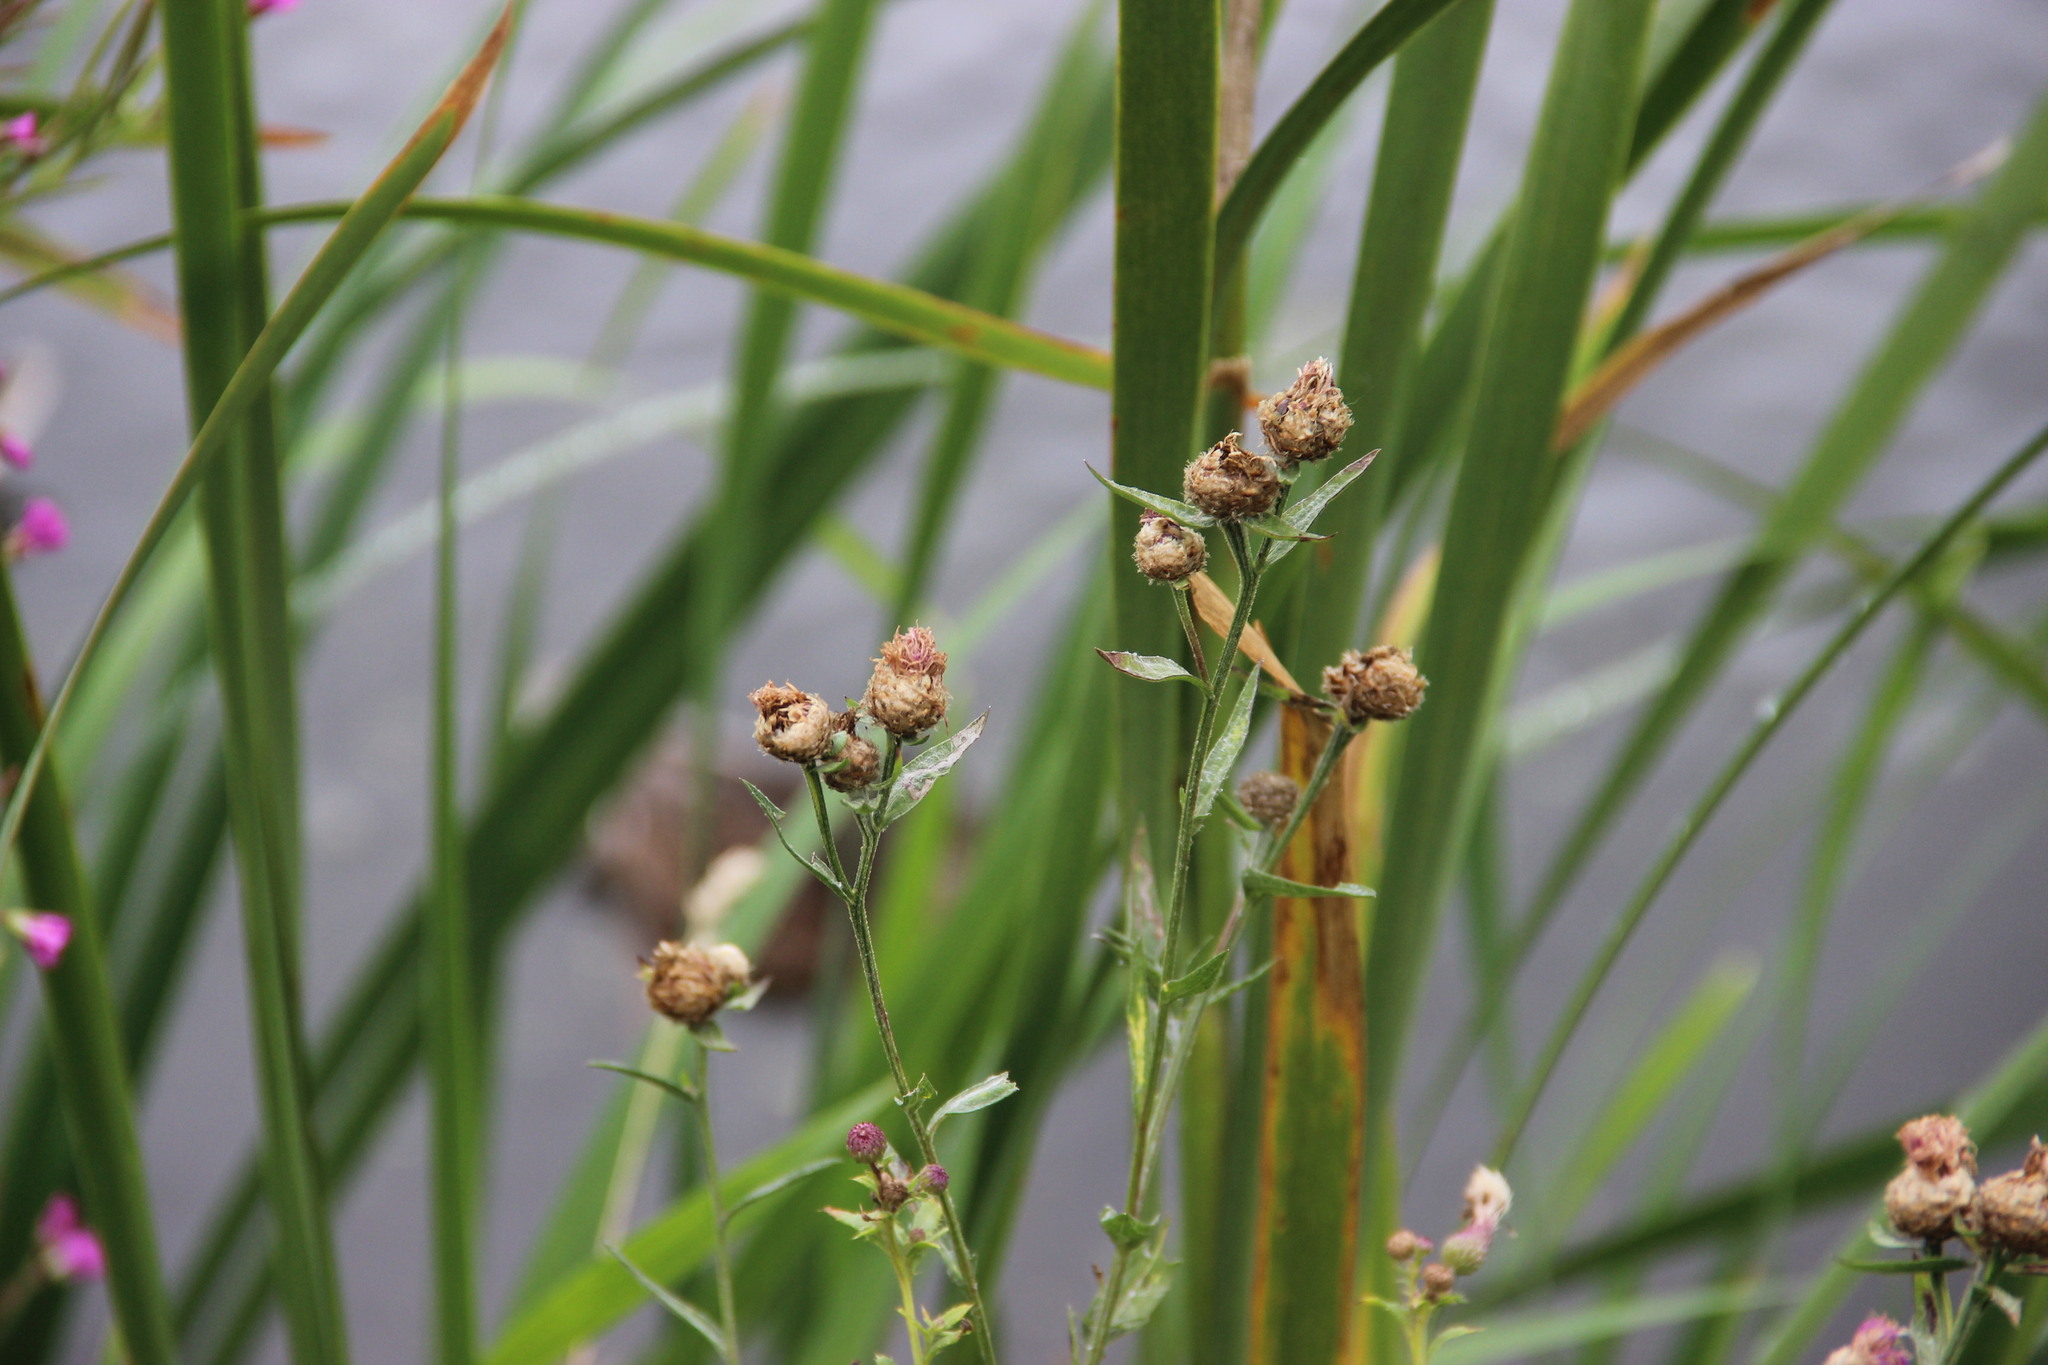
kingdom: Plantae
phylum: Tracheophyta
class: Magnoliopsida
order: Asterales
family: Asteraceae
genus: Centaurea
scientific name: Centaurea jacea
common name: Brown knapweed
